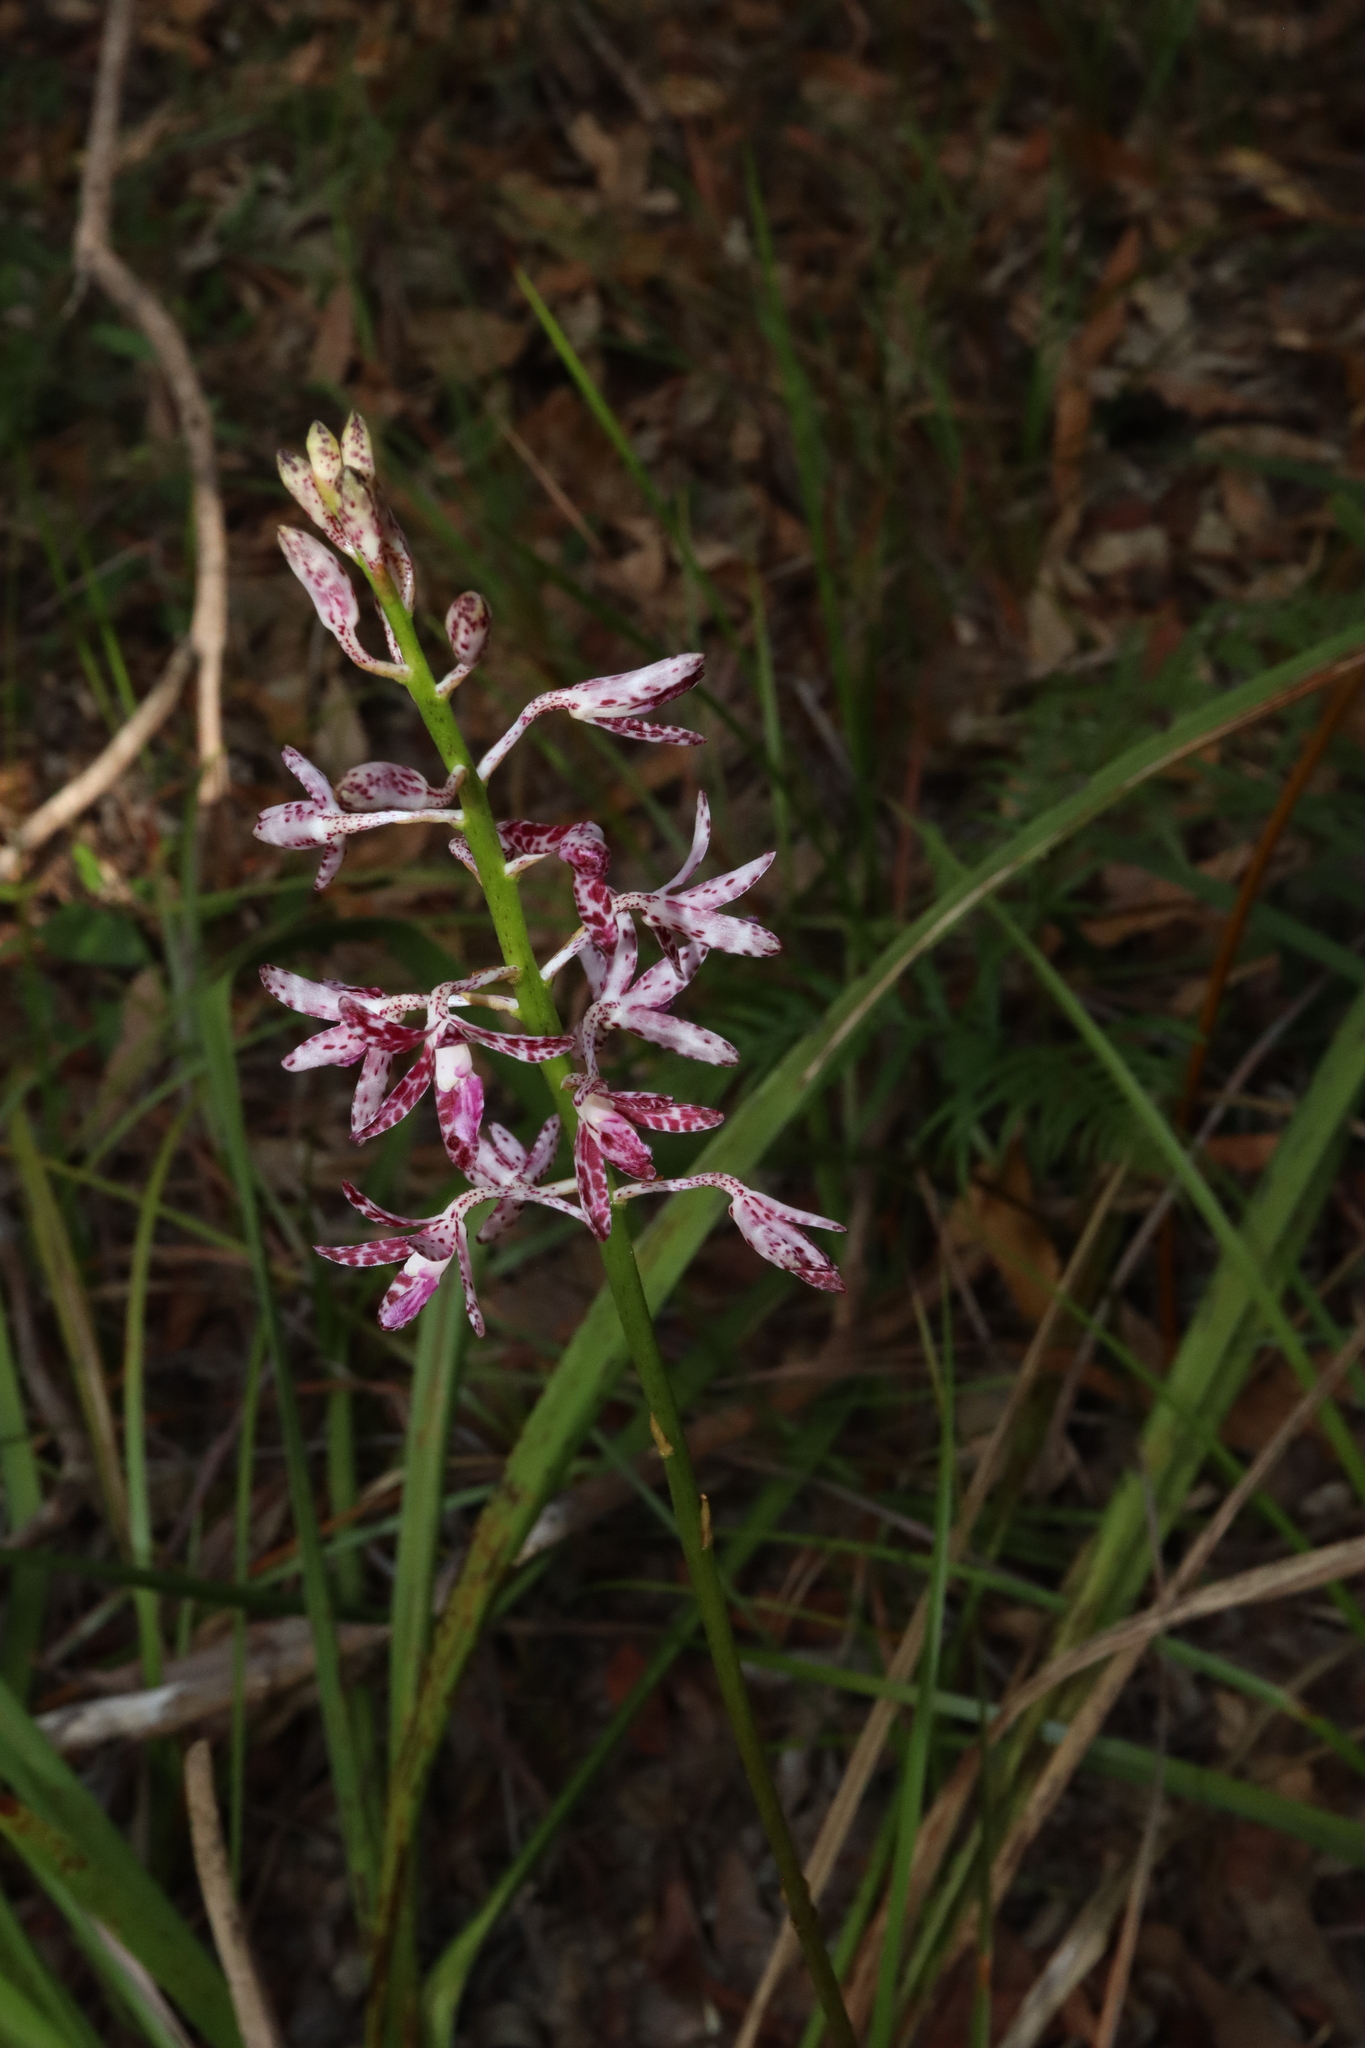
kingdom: Plantae
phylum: Tracheophyta
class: Liliopsida
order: Asparagales
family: Orchidaceae
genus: Dipodium
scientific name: Dipodium variegatum
